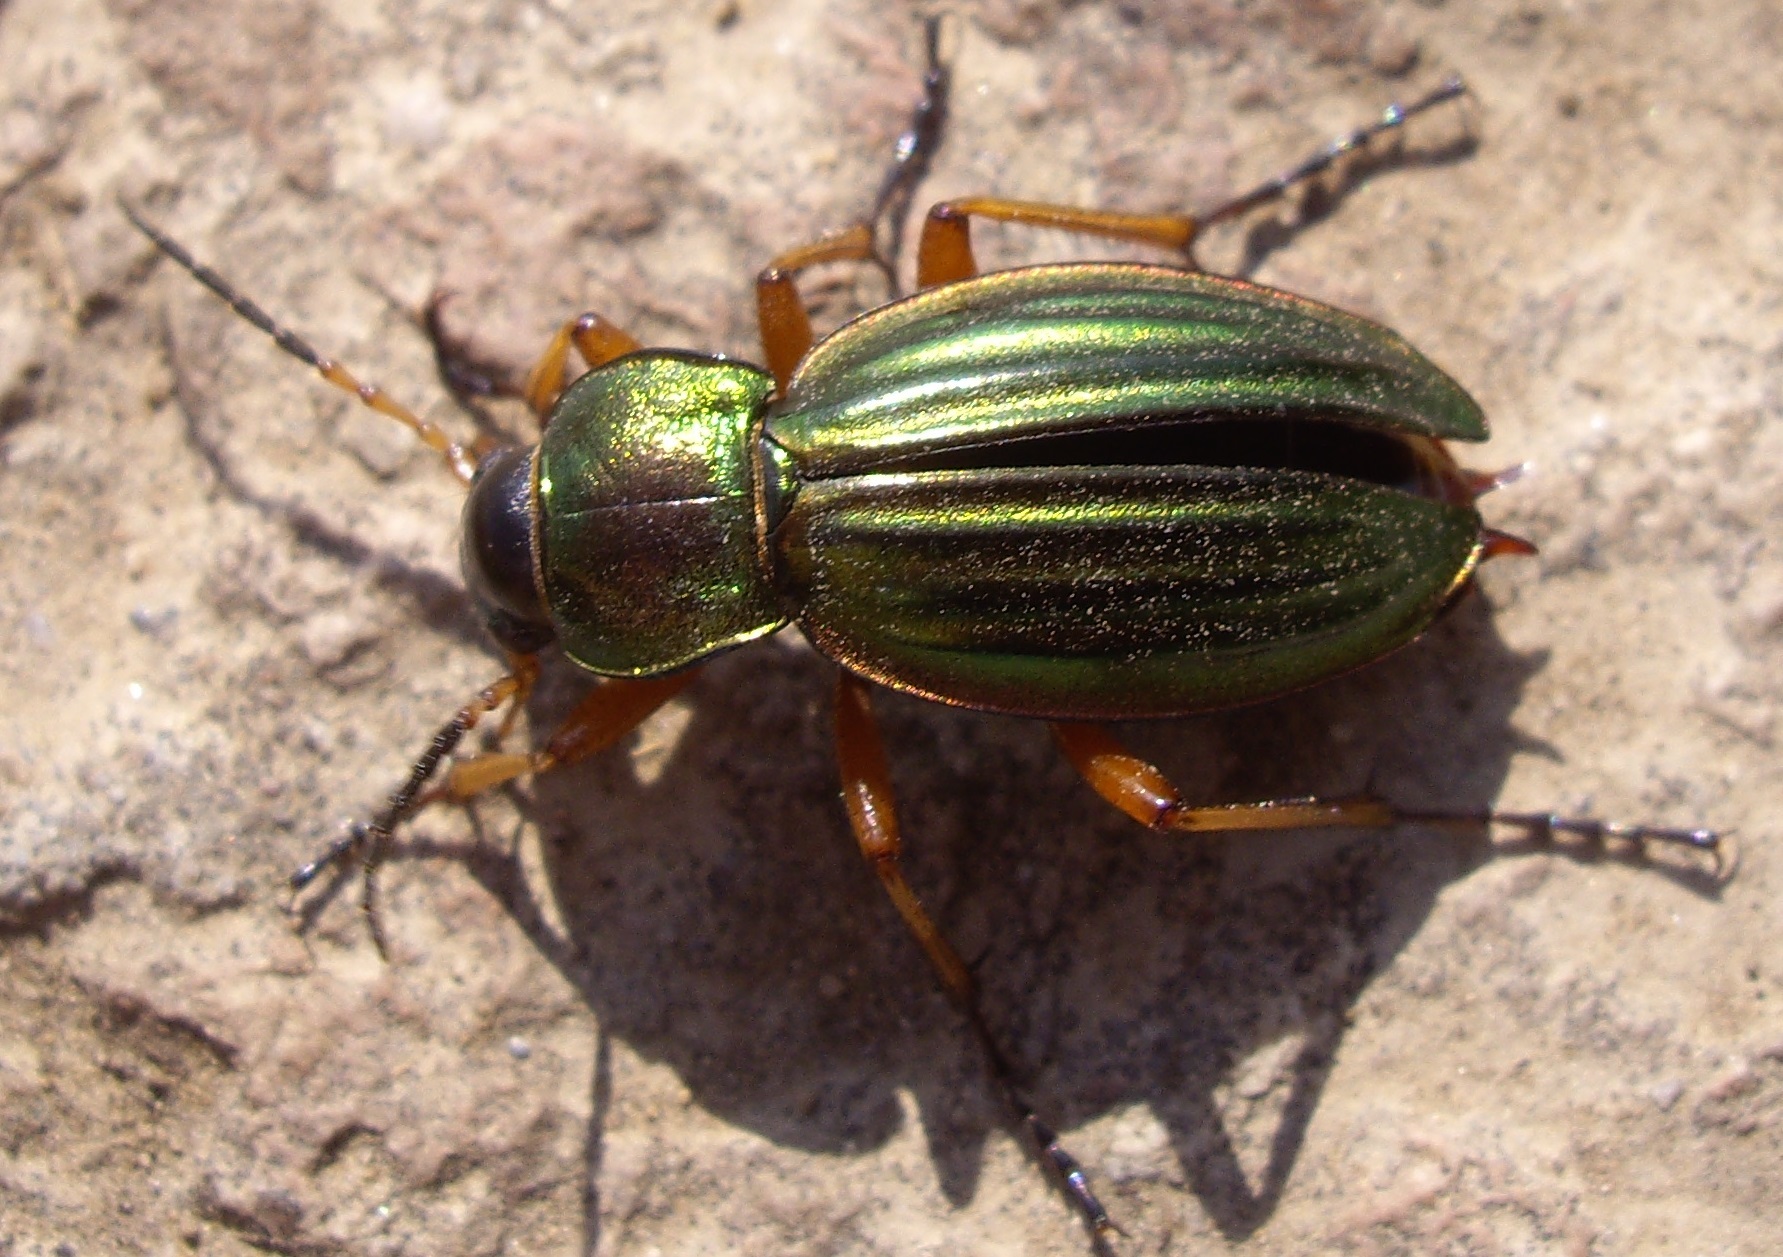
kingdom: Animalia
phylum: Arthropoda
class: Insecta
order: Coleoptera
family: Carabidae
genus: Carabus
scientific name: Carabus auratus
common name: Golden ground beetle
